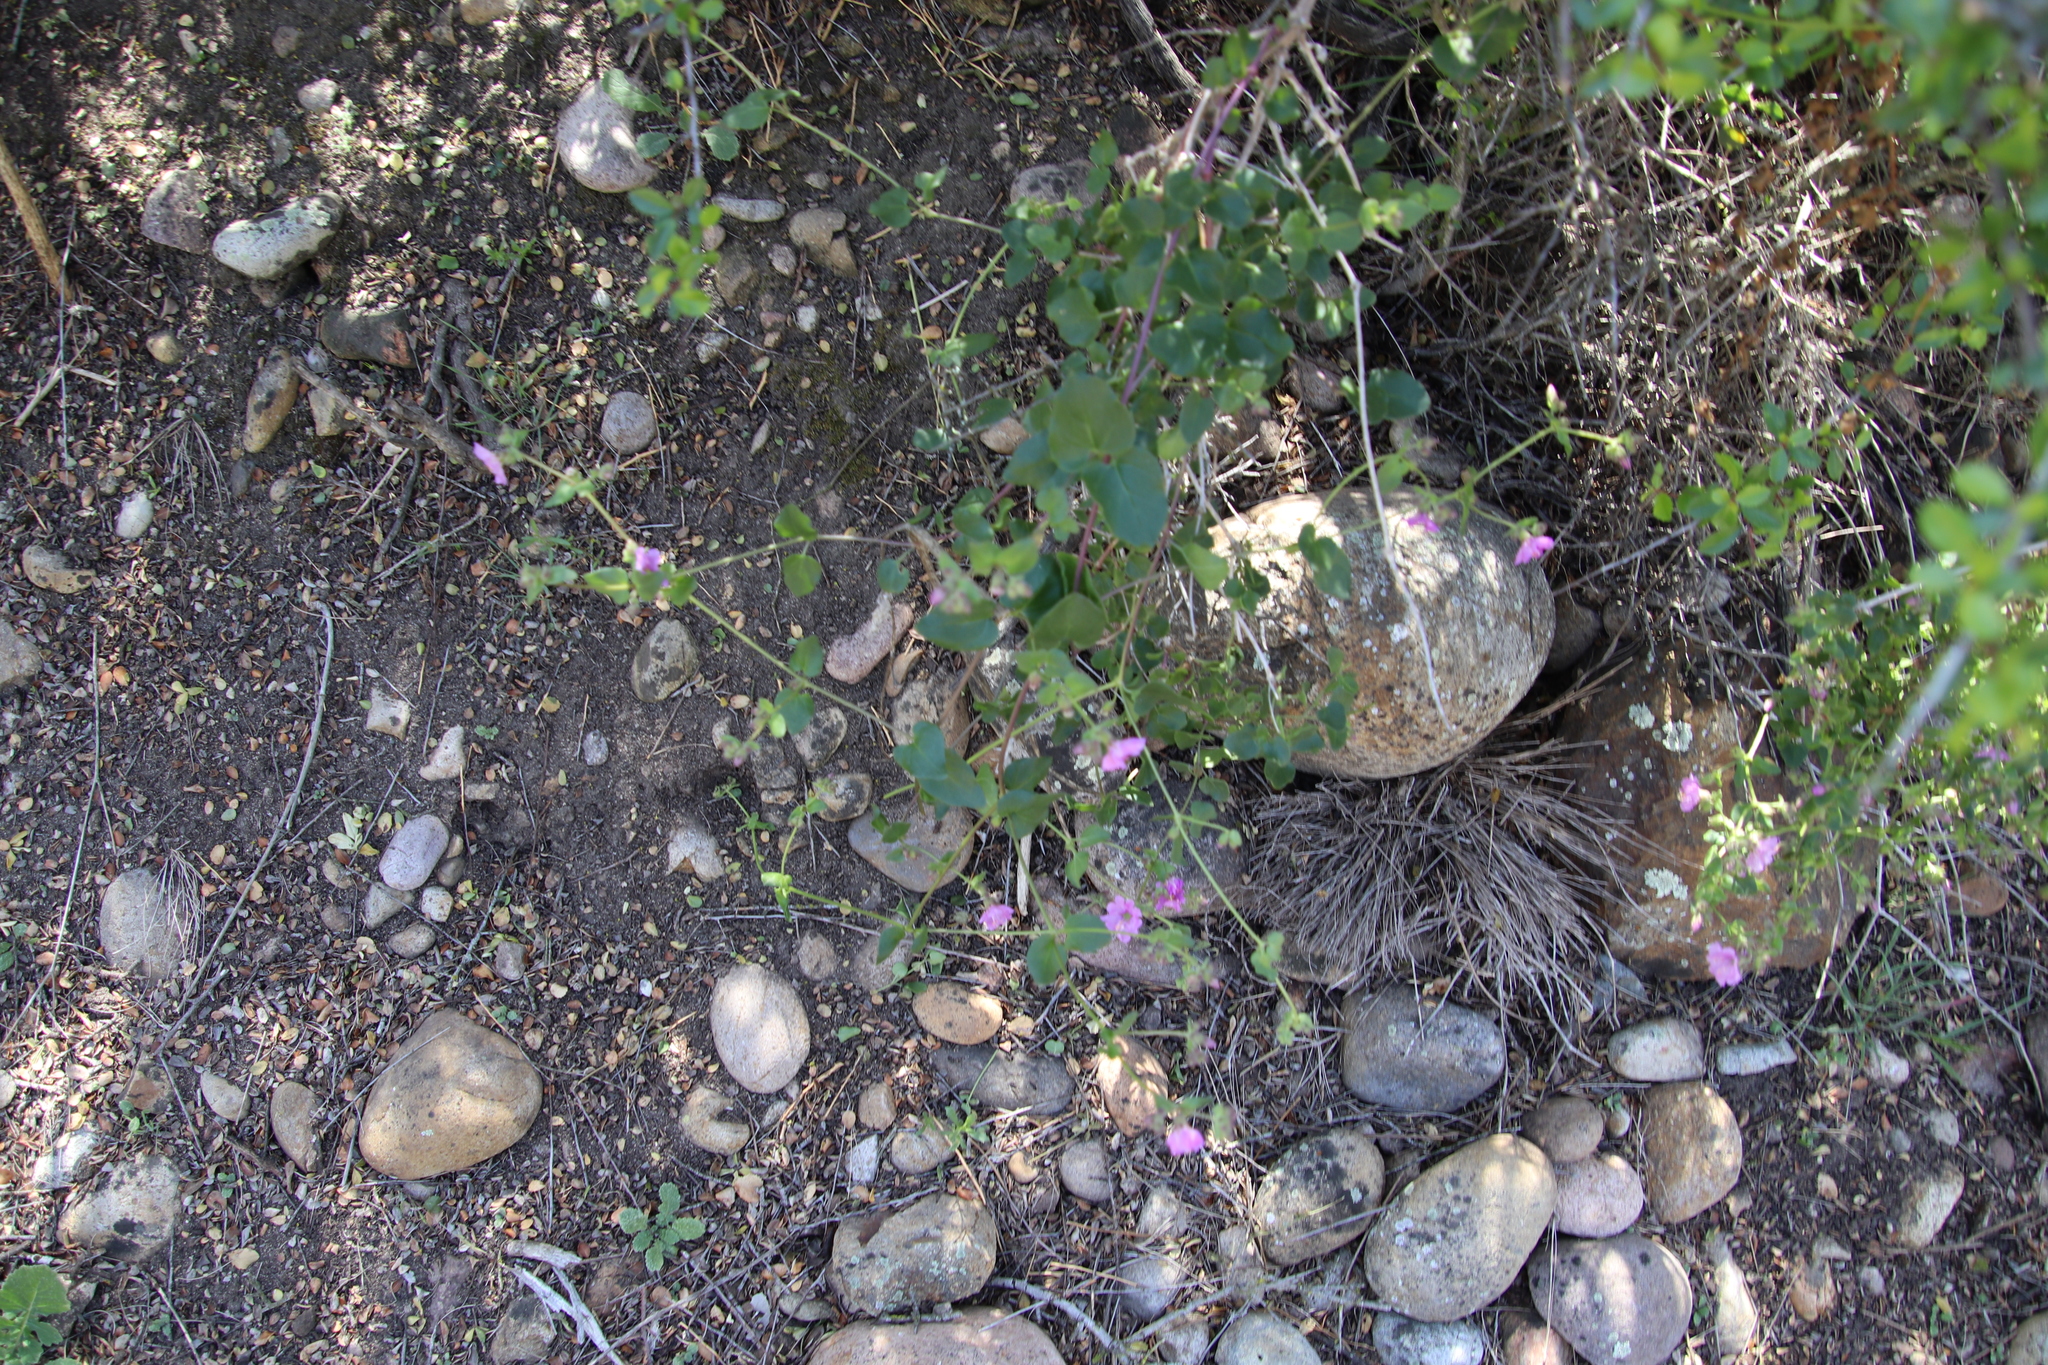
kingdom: Plantae
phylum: Tracheophyta
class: Magnoliopsida
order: Caryophyllales
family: Nyctaginaceae
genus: Mirabilis
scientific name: Mirabilis laevis
